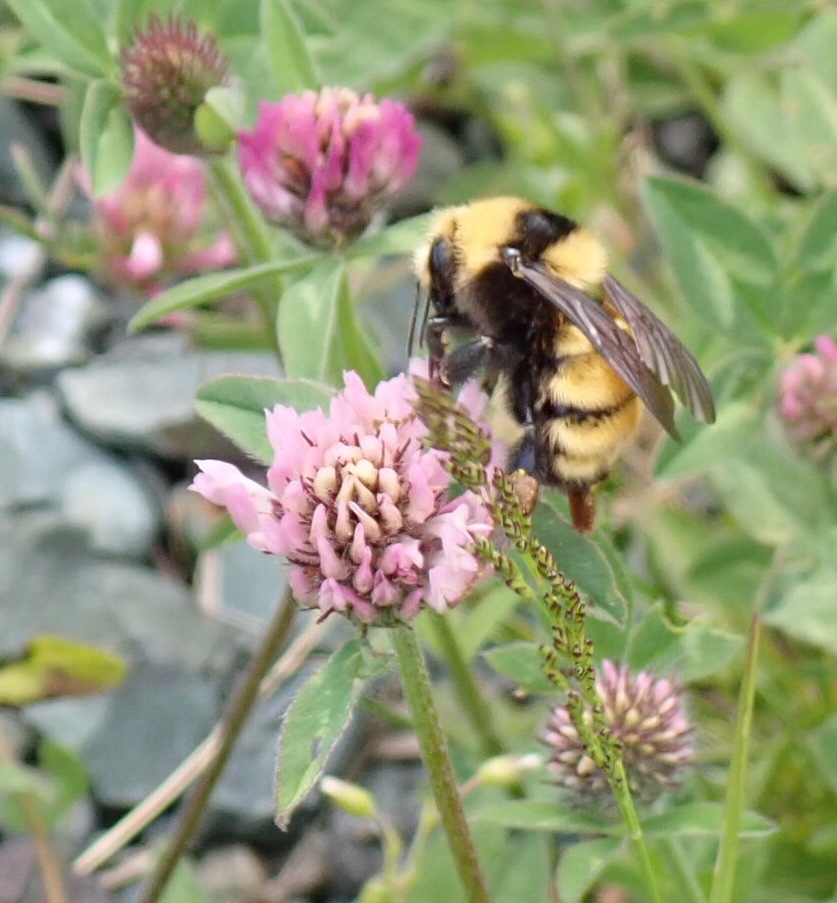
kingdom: Animalia
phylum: Arthropoda
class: Insecta
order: Hymenoptera
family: Apidae
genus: Bombus
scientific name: Bombus borealis
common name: Northern amber bumble bee
